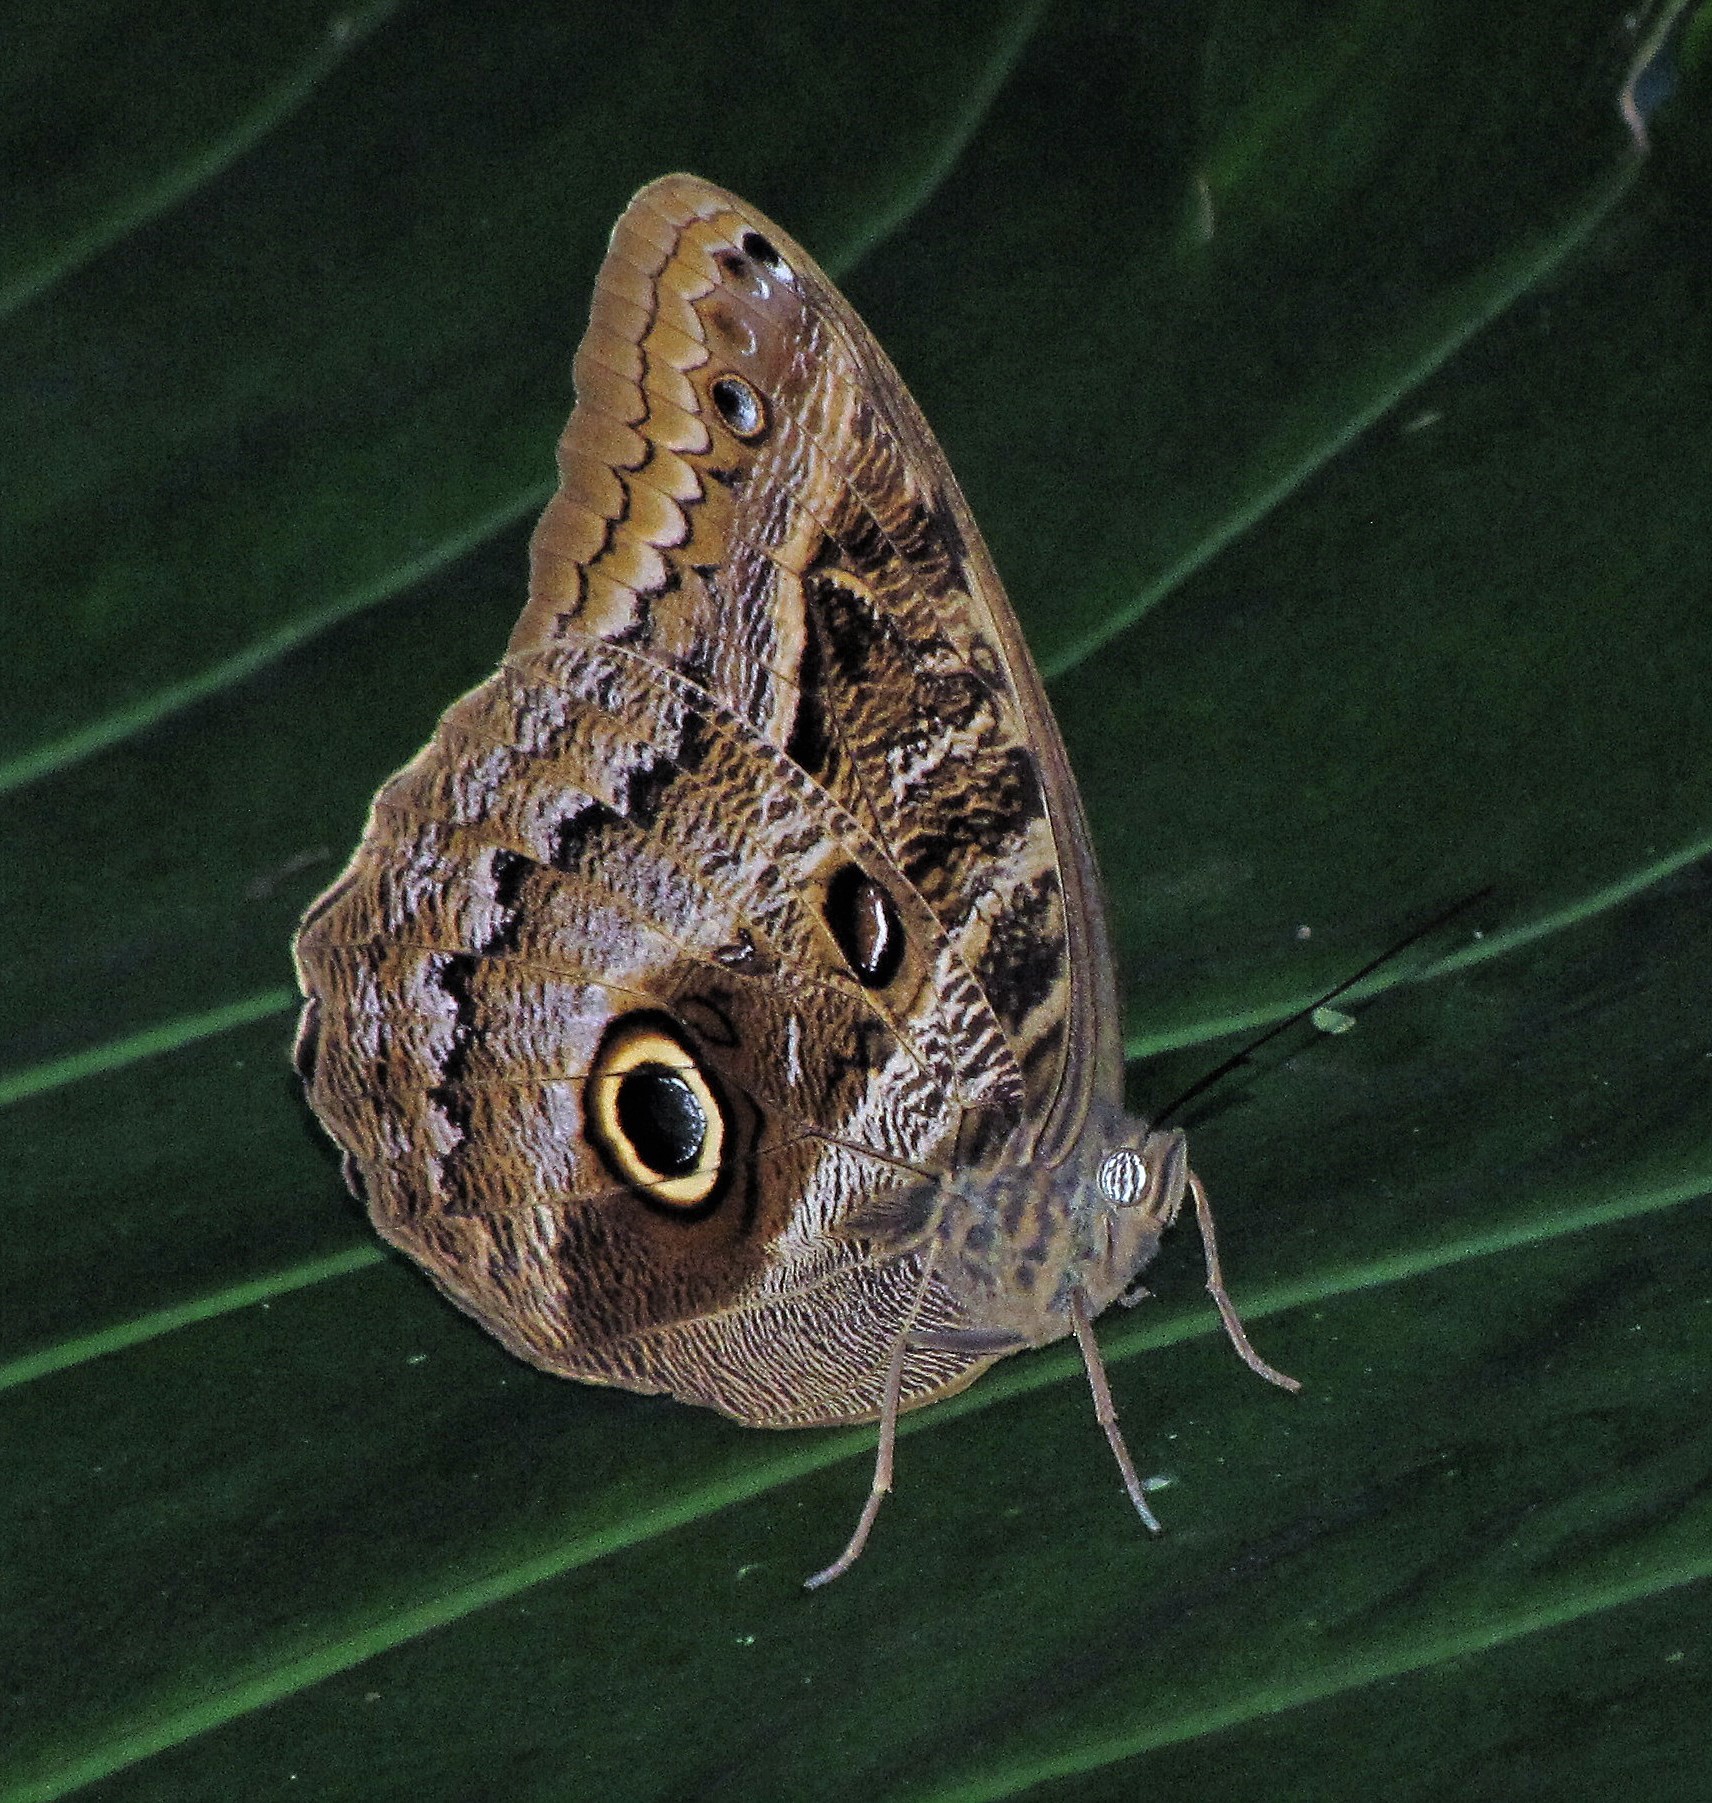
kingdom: Animalia
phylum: Arthropoda
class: Insecta
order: Lepidoptera
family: Nymphalidae
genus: Caligo
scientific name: Caligo illioneus
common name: Dusky owl-butterfly
